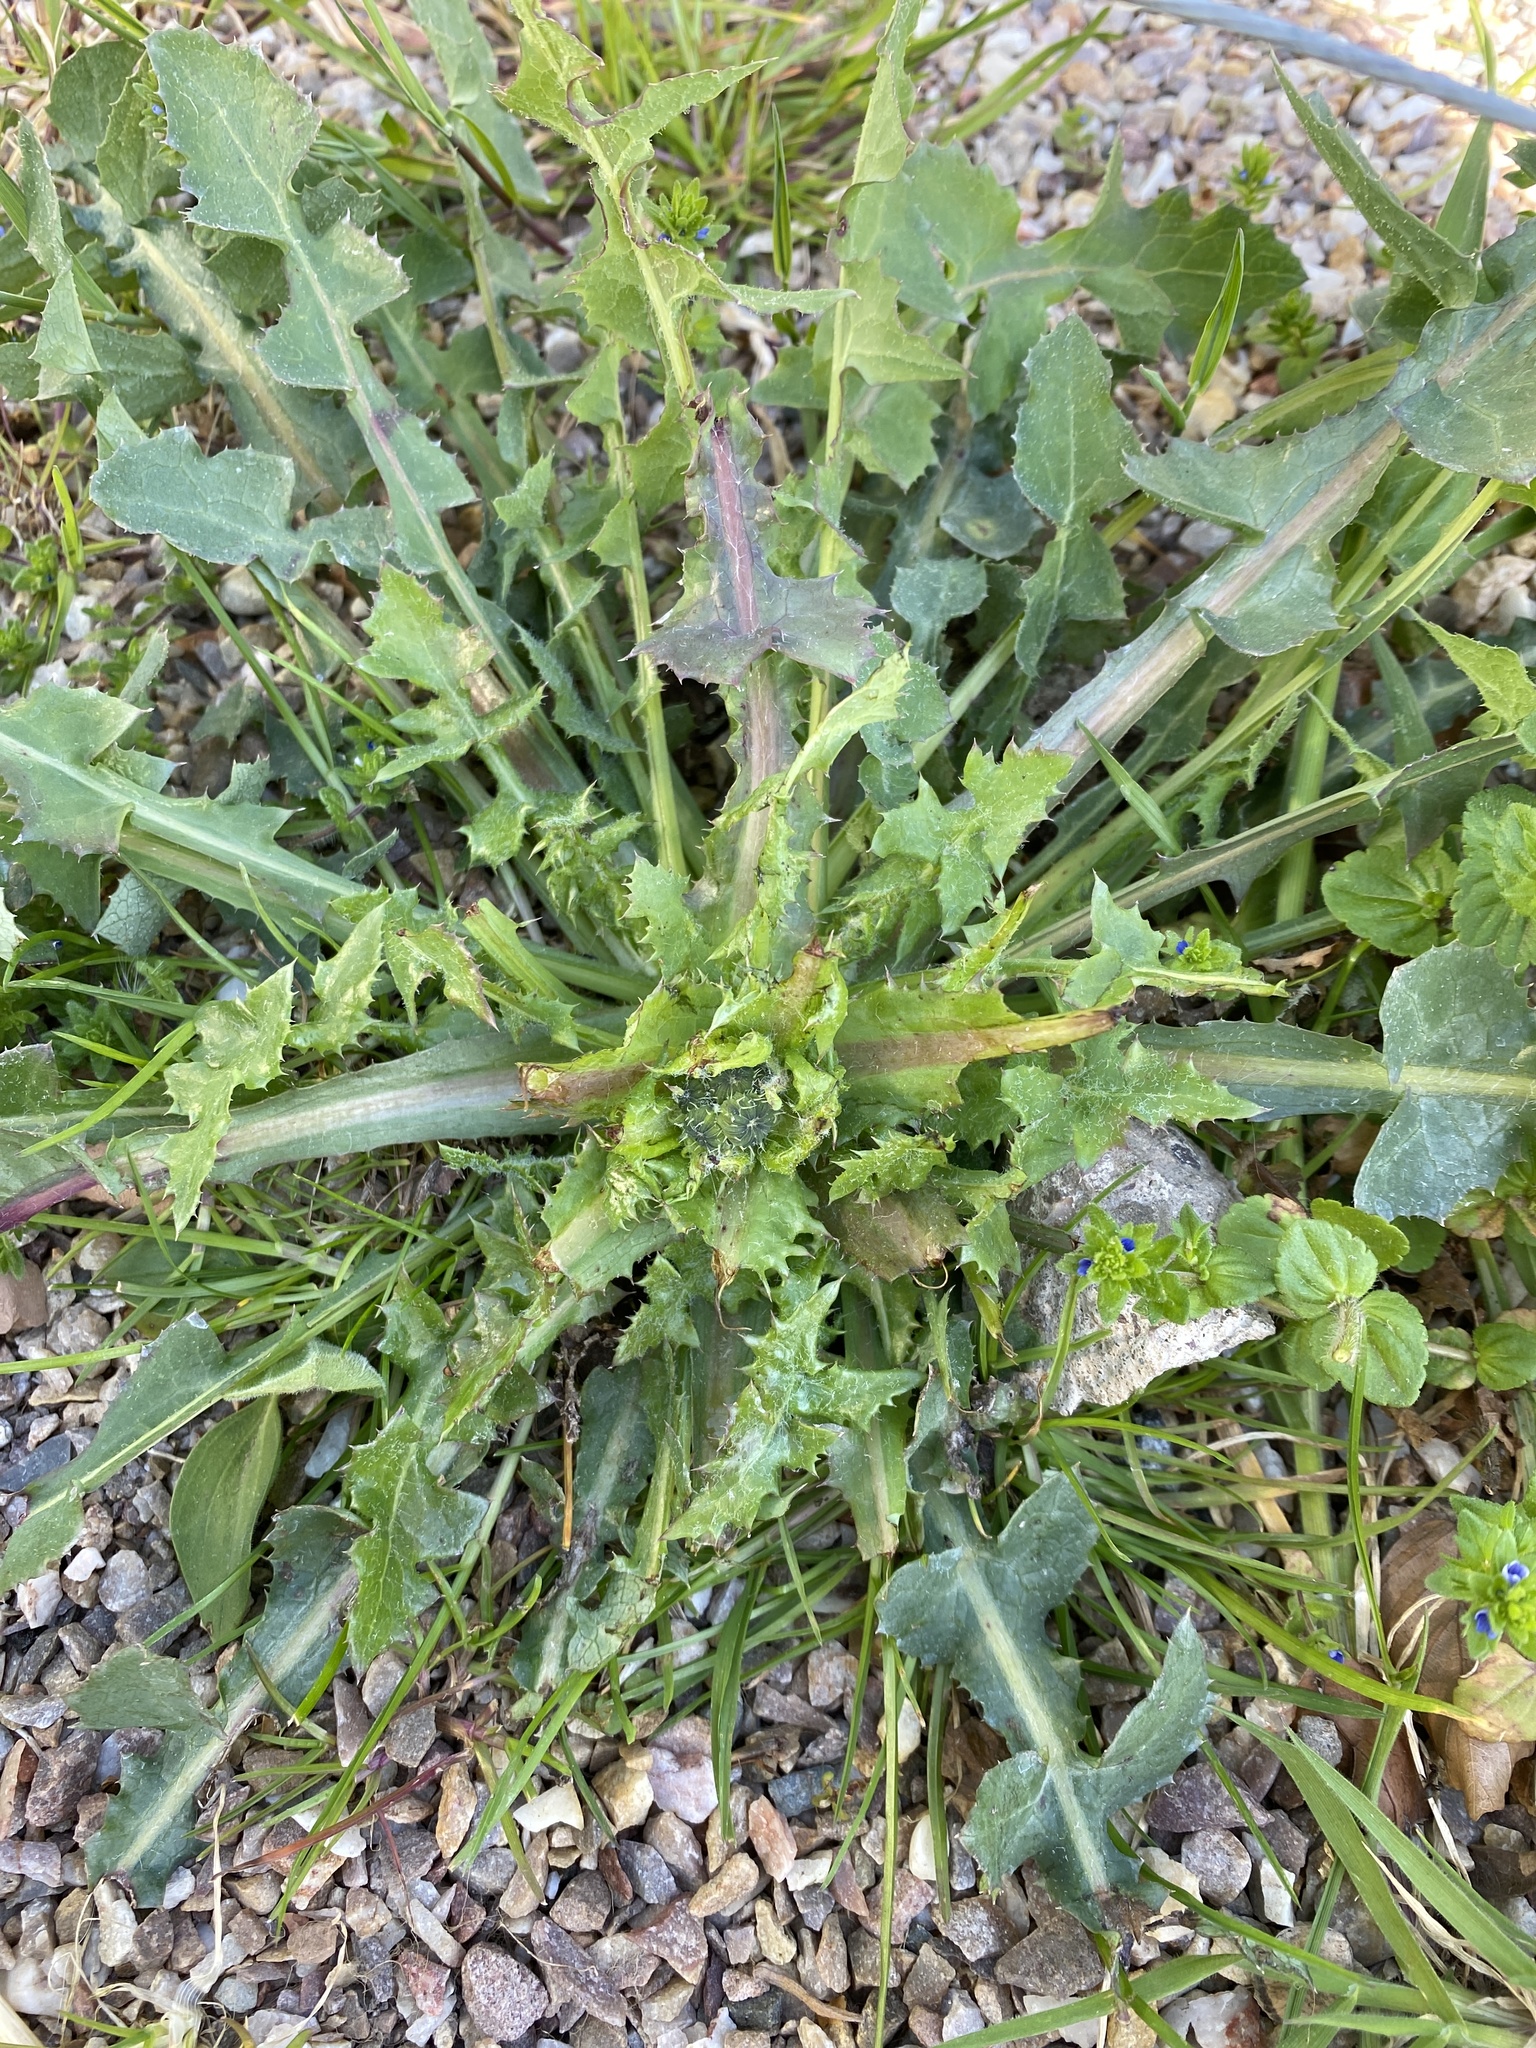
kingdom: Plantae
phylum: Tracheophyta
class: Magnoliopsida
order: Asterales
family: Asteraceae
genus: Sonchus
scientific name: Sonchus oleraceus
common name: Common sowthistle
